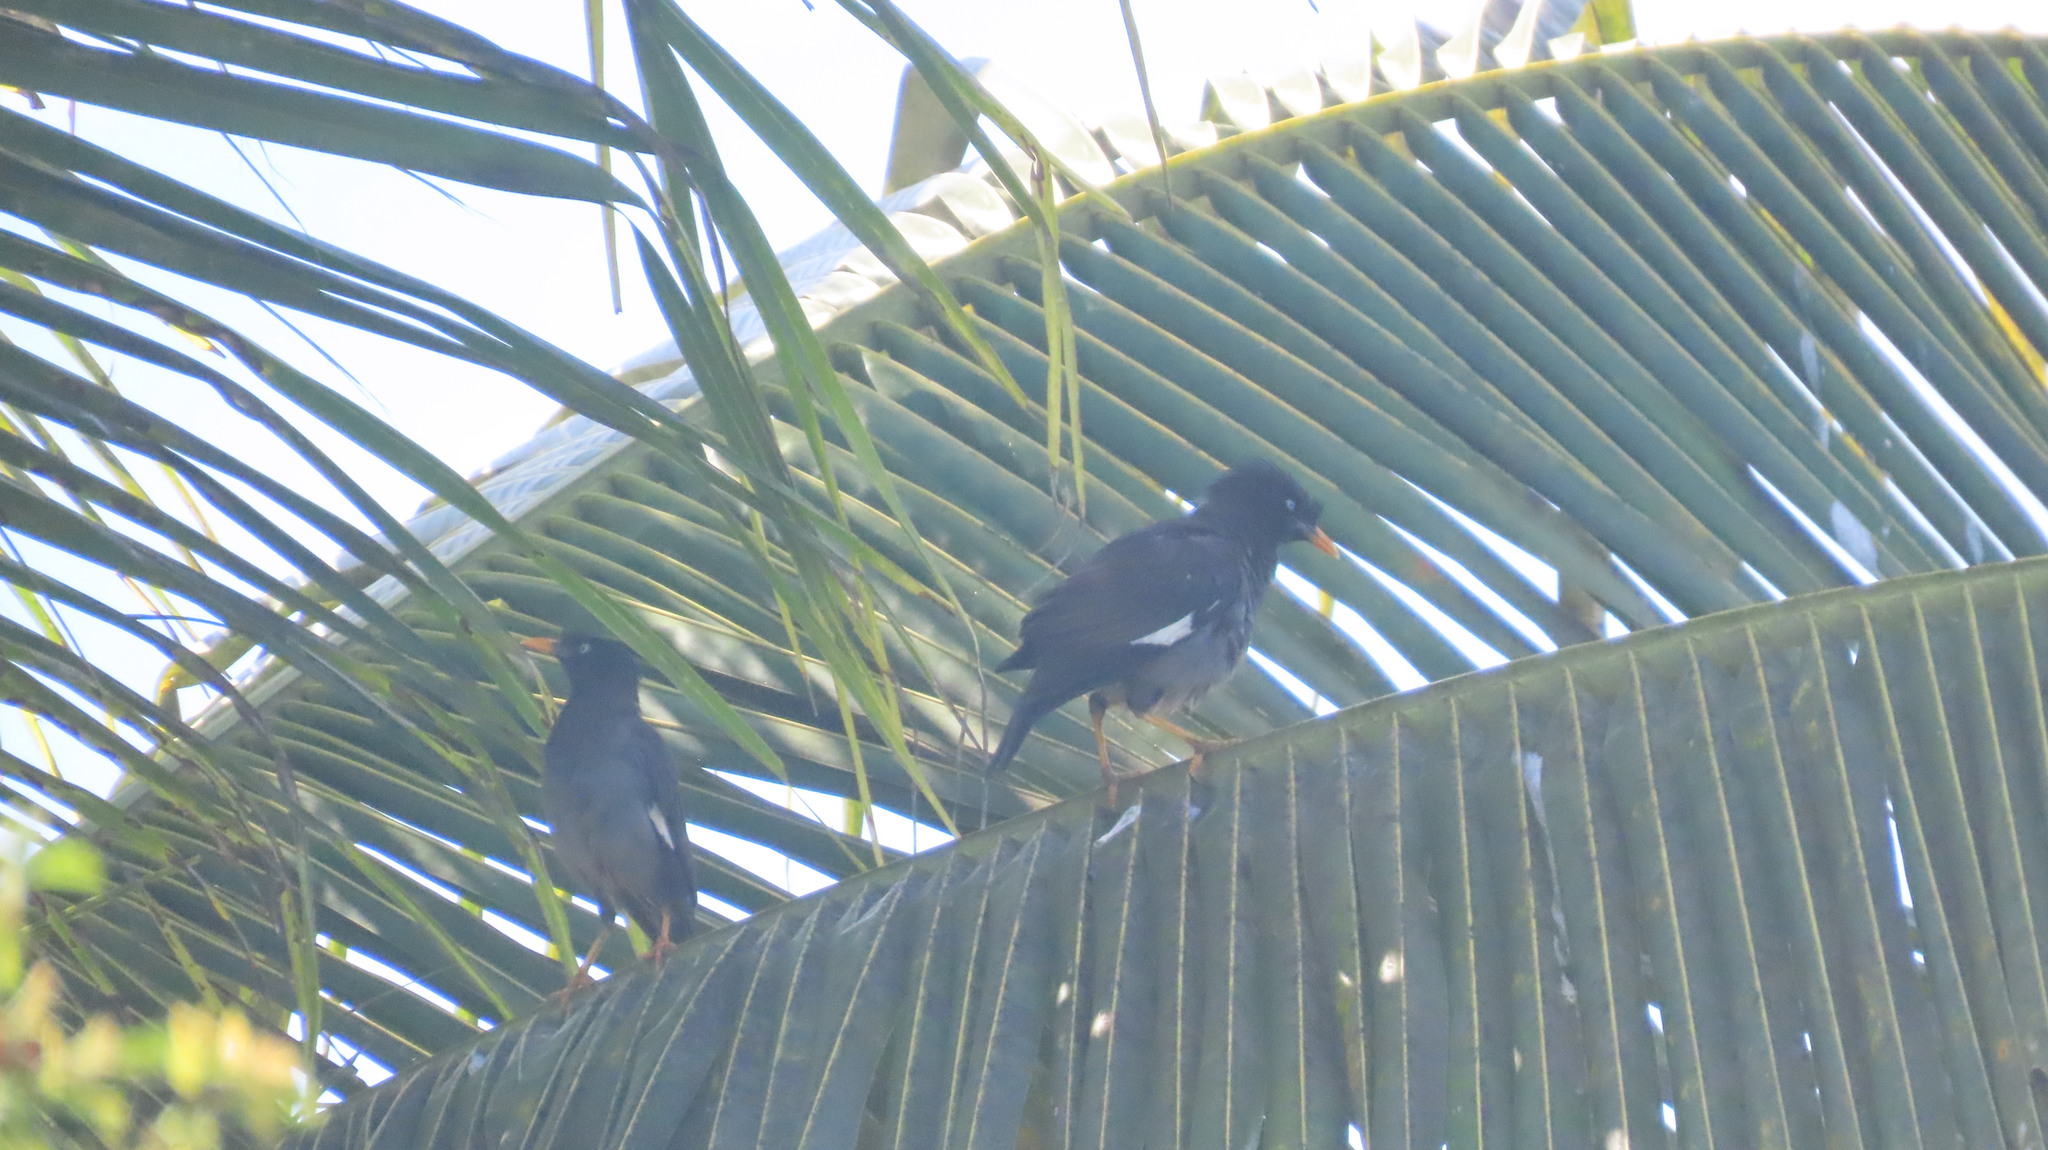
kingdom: Animalia
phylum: Chordata
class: Aves
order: Passeriformes
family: Sturnidae
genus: Acridotheres
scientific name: Acridotheres fuscus
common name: Jungle myna
